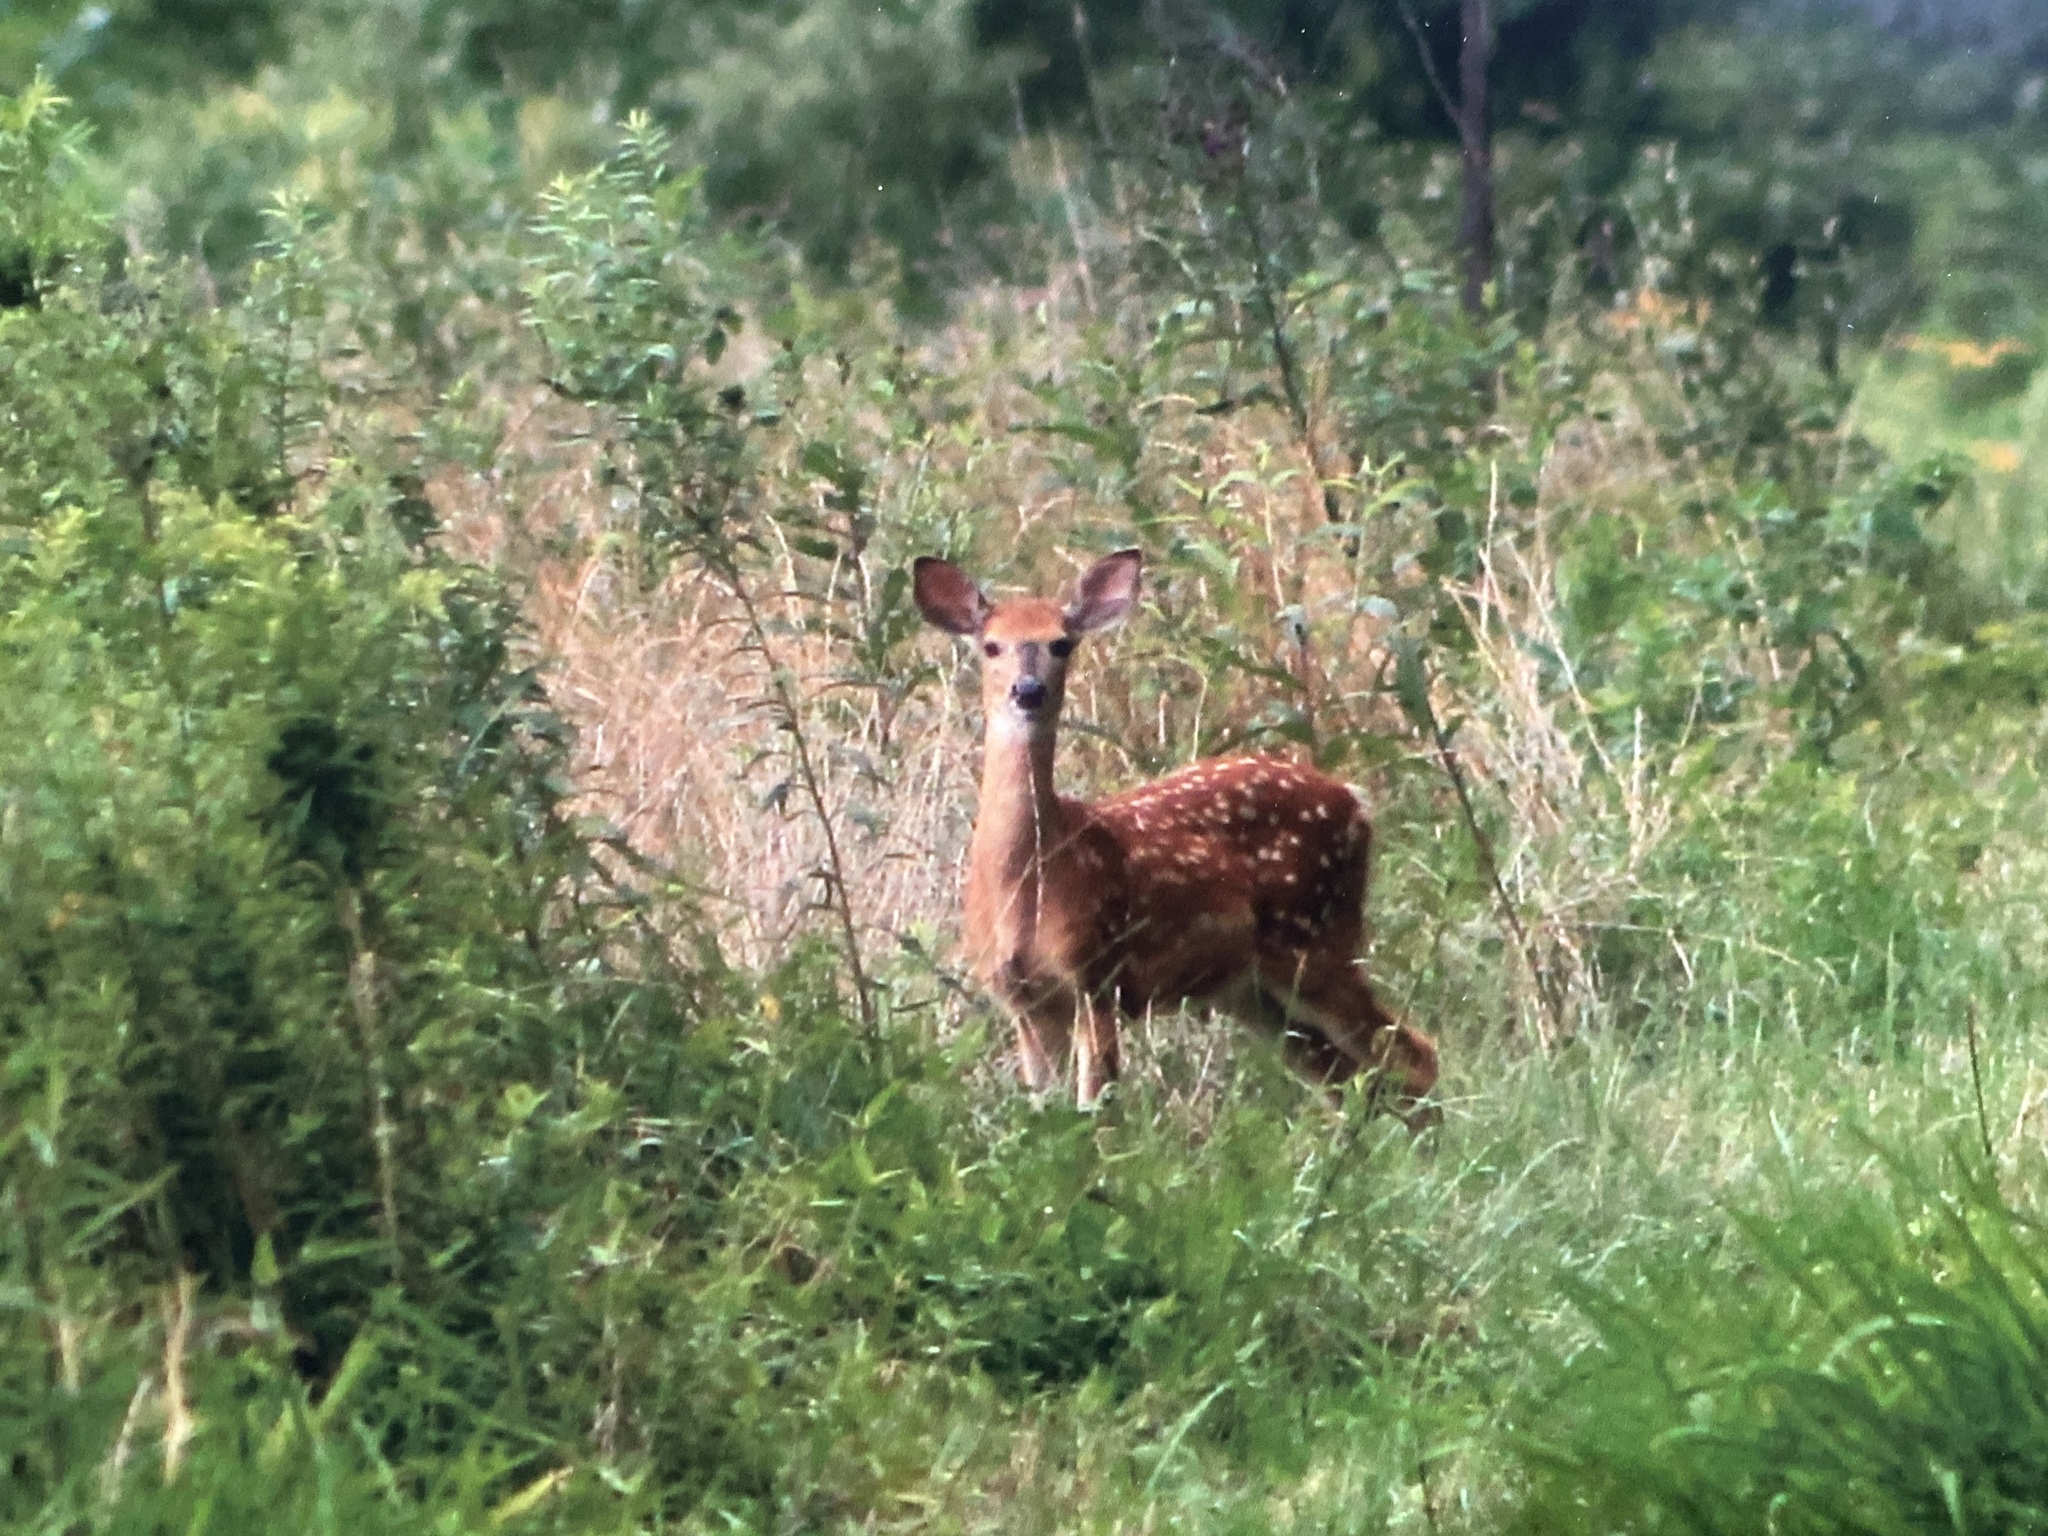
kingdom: Animalia
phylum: Chordata
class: Mammalia
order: Artiodactyla
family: Cervidae
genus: Odocoileus
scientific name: Odocoileus virginianus
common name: White-tailed deer
